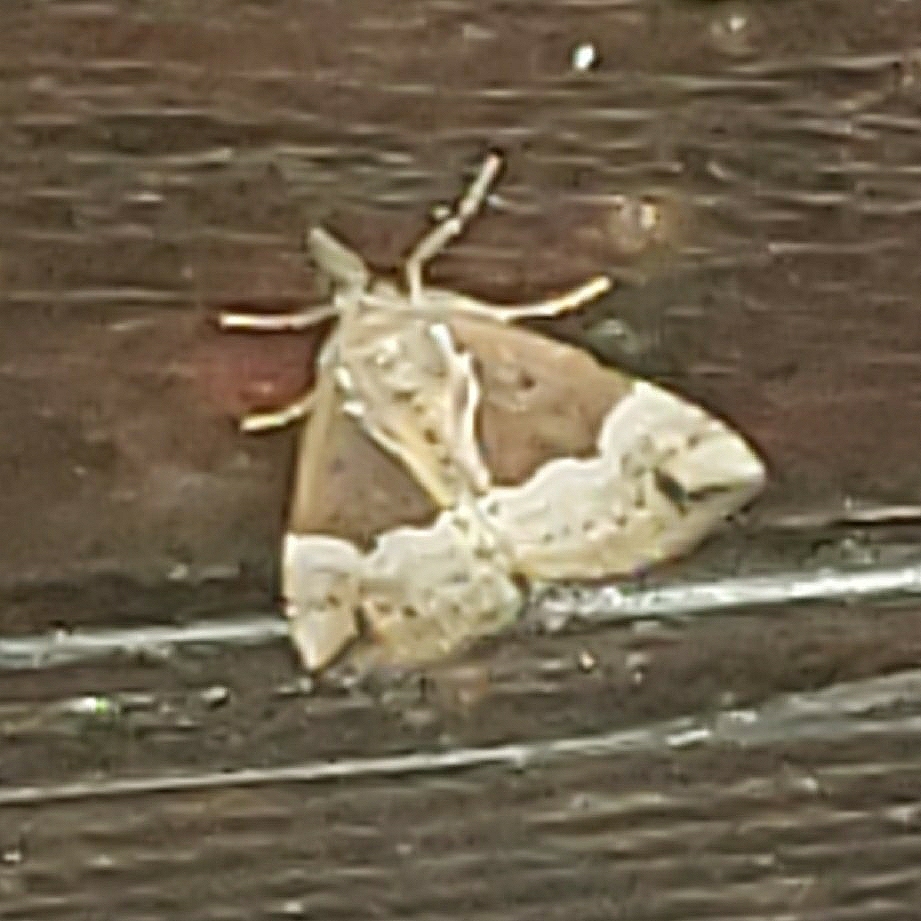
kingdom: Animalia
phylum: Arthropoda
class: Insecta
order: Lepidoptera
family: Erebidae
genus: Hypena
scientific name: Hypena bijugalis
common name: Dimorphic bomolocha moth
